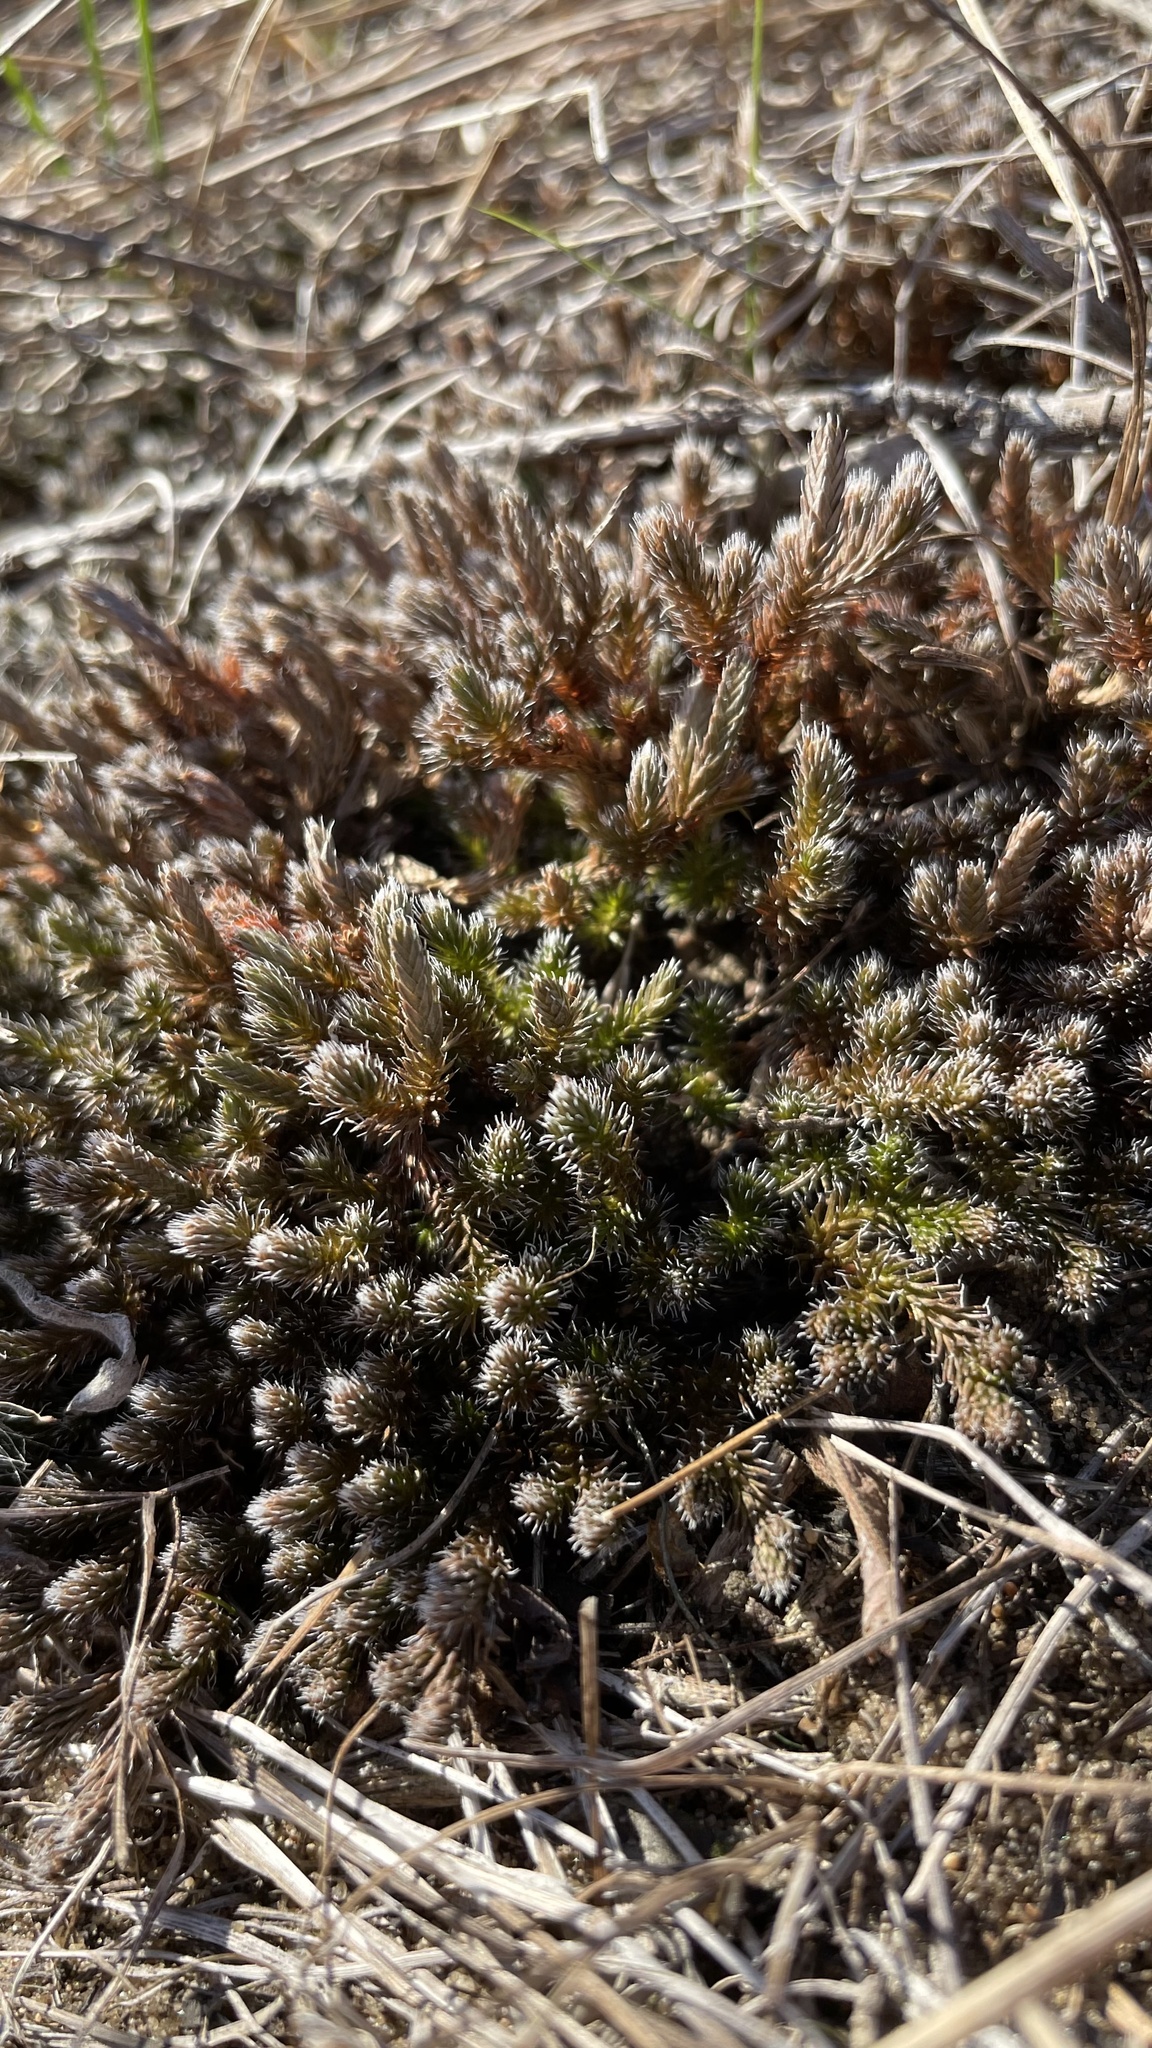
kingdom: Plantae
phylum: Tracheophyta
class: Lycopodiopsida
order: Selaginellales
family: Selaginellaceae
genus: Selaginella
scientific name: Selaginella rupestris
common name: Dwarf spikemoss
